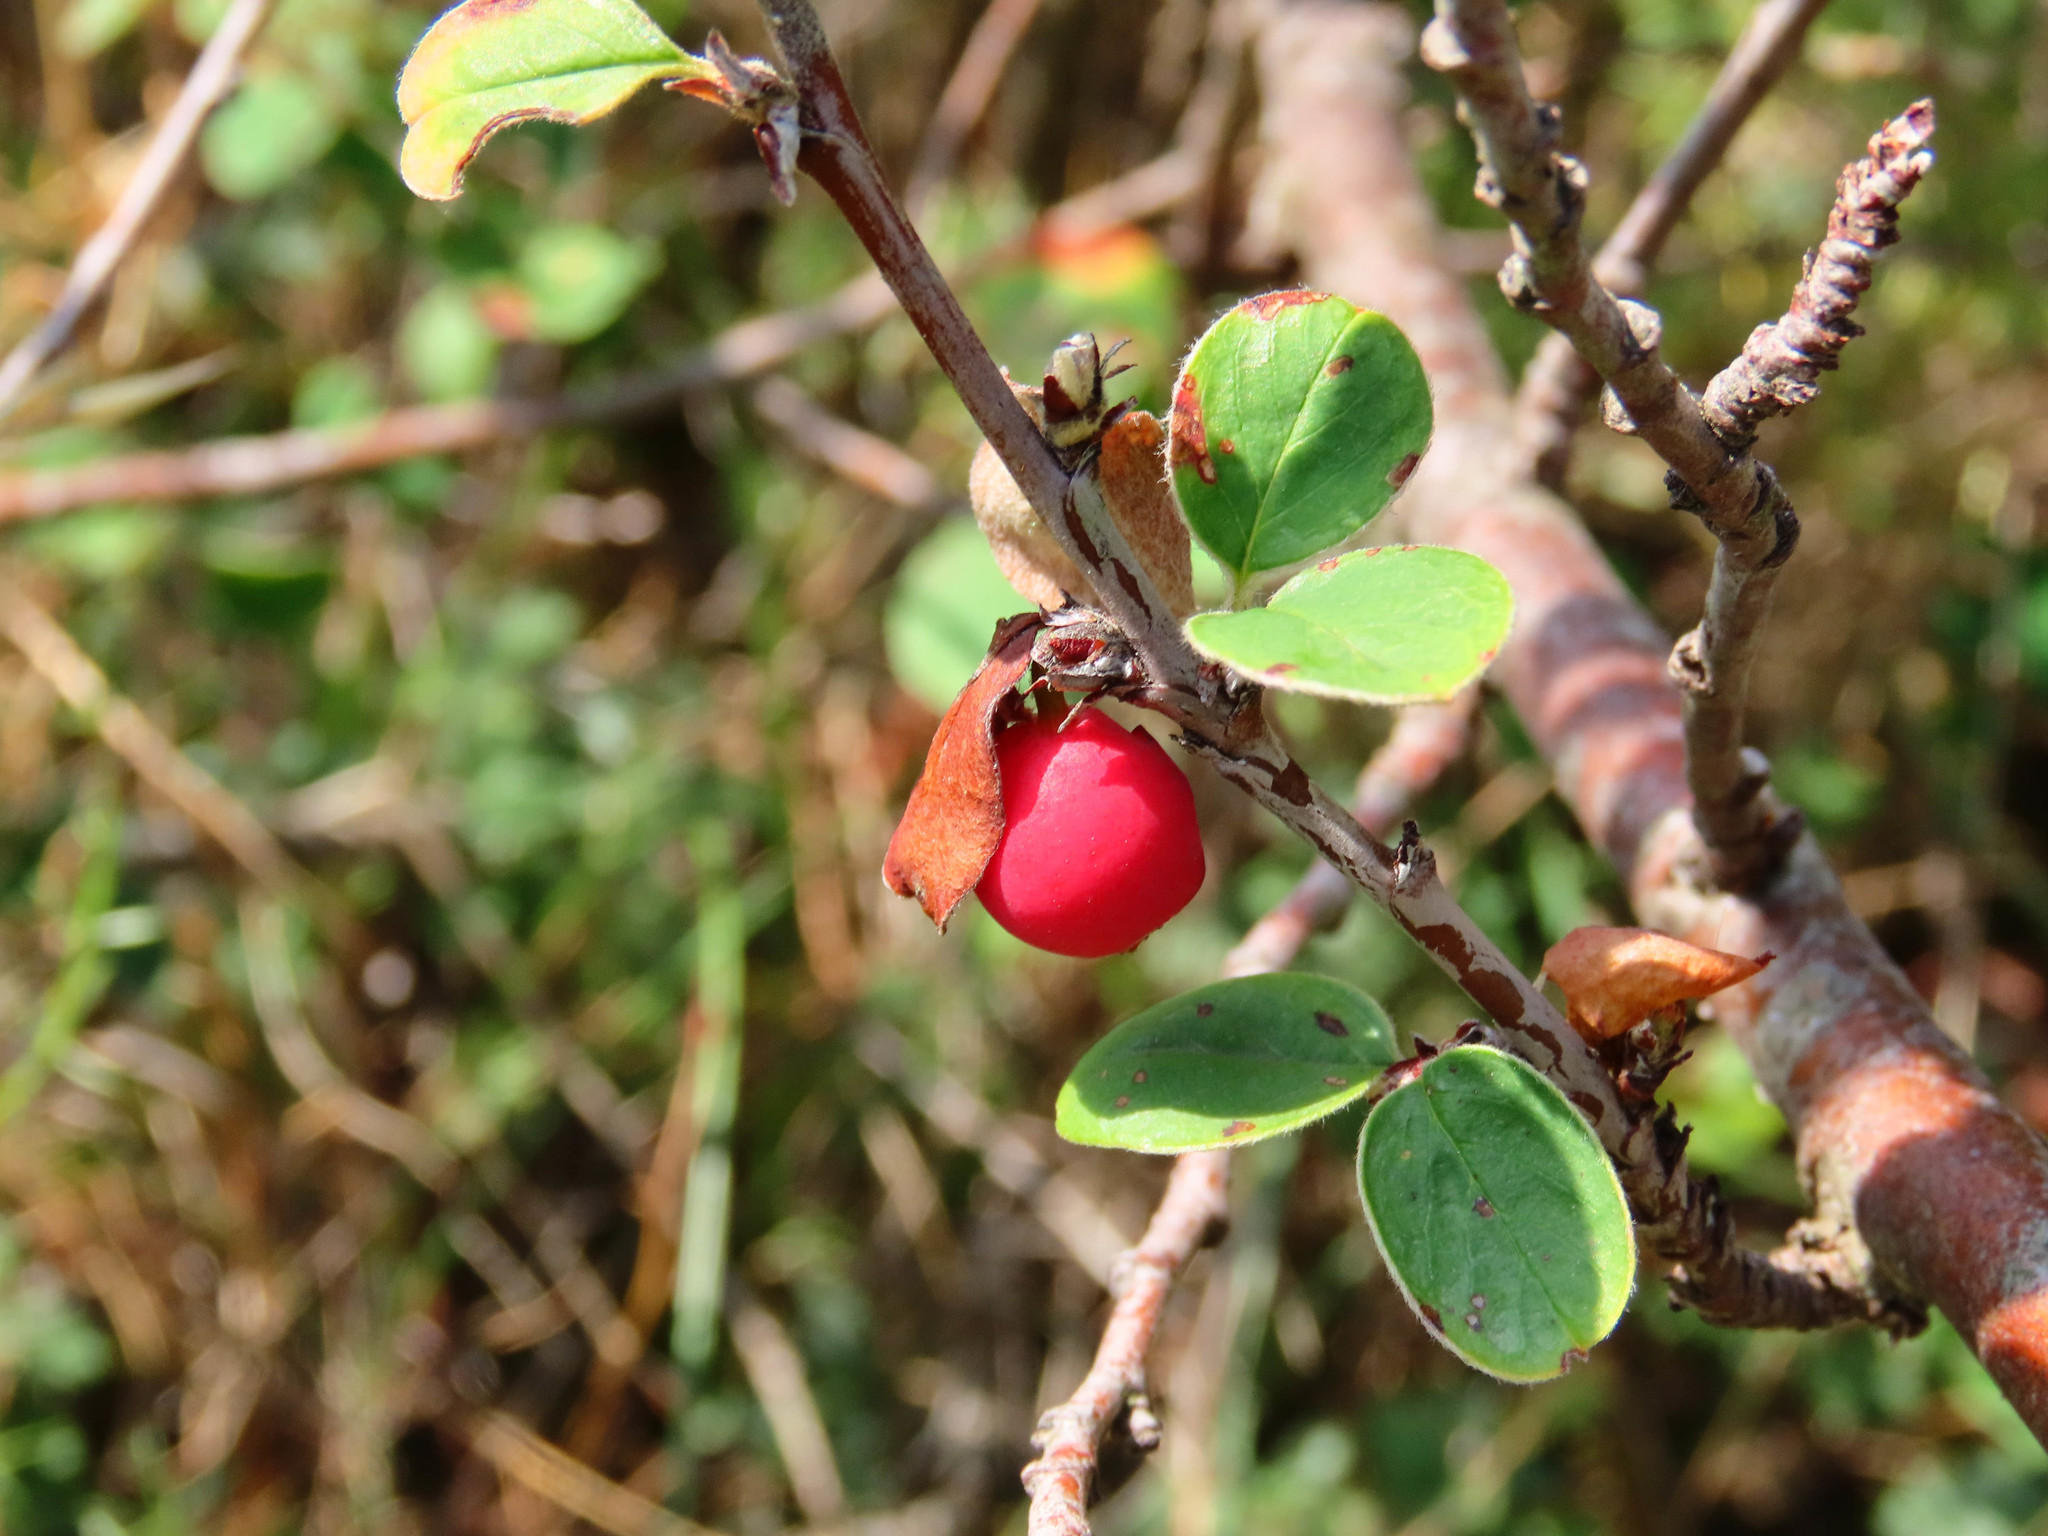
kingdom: Plantae
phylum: Tracheophyta
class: Magnoliopsida
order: Rosales
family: Rosaceae
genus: Cotoneaster
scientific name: Cotoneaster
